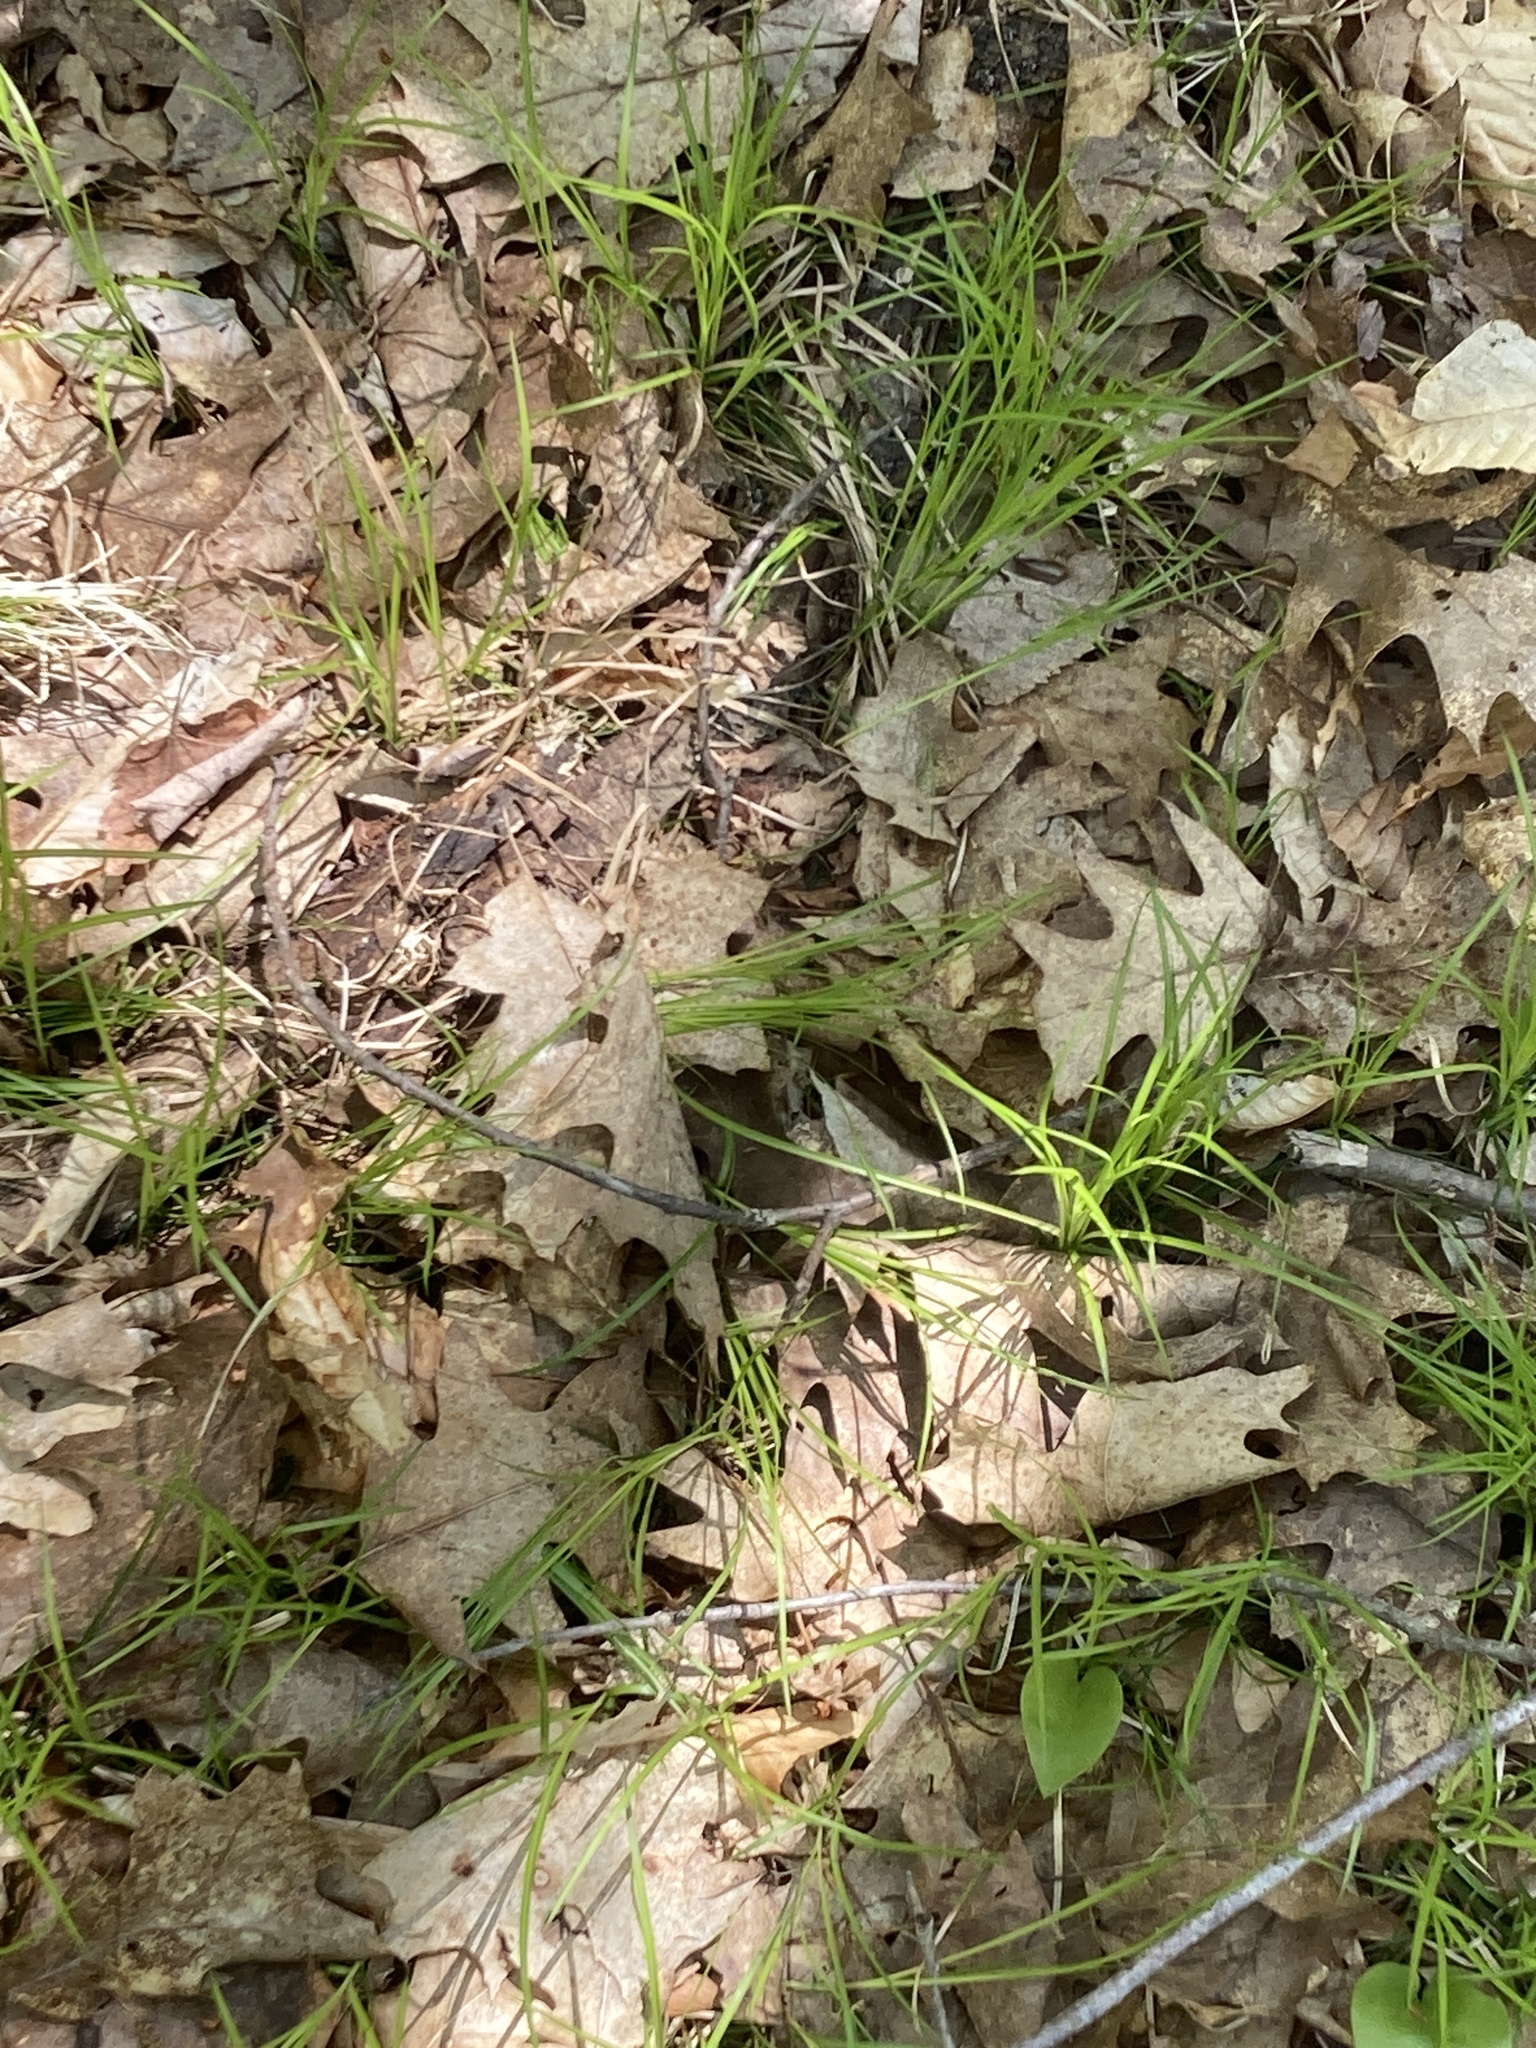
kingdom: Plantae
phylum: Tracheophyta
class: Magnoliopsida
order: Fagales
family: Fagaceae
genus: Quercus
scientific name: Quercus rubra
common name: Red oak
